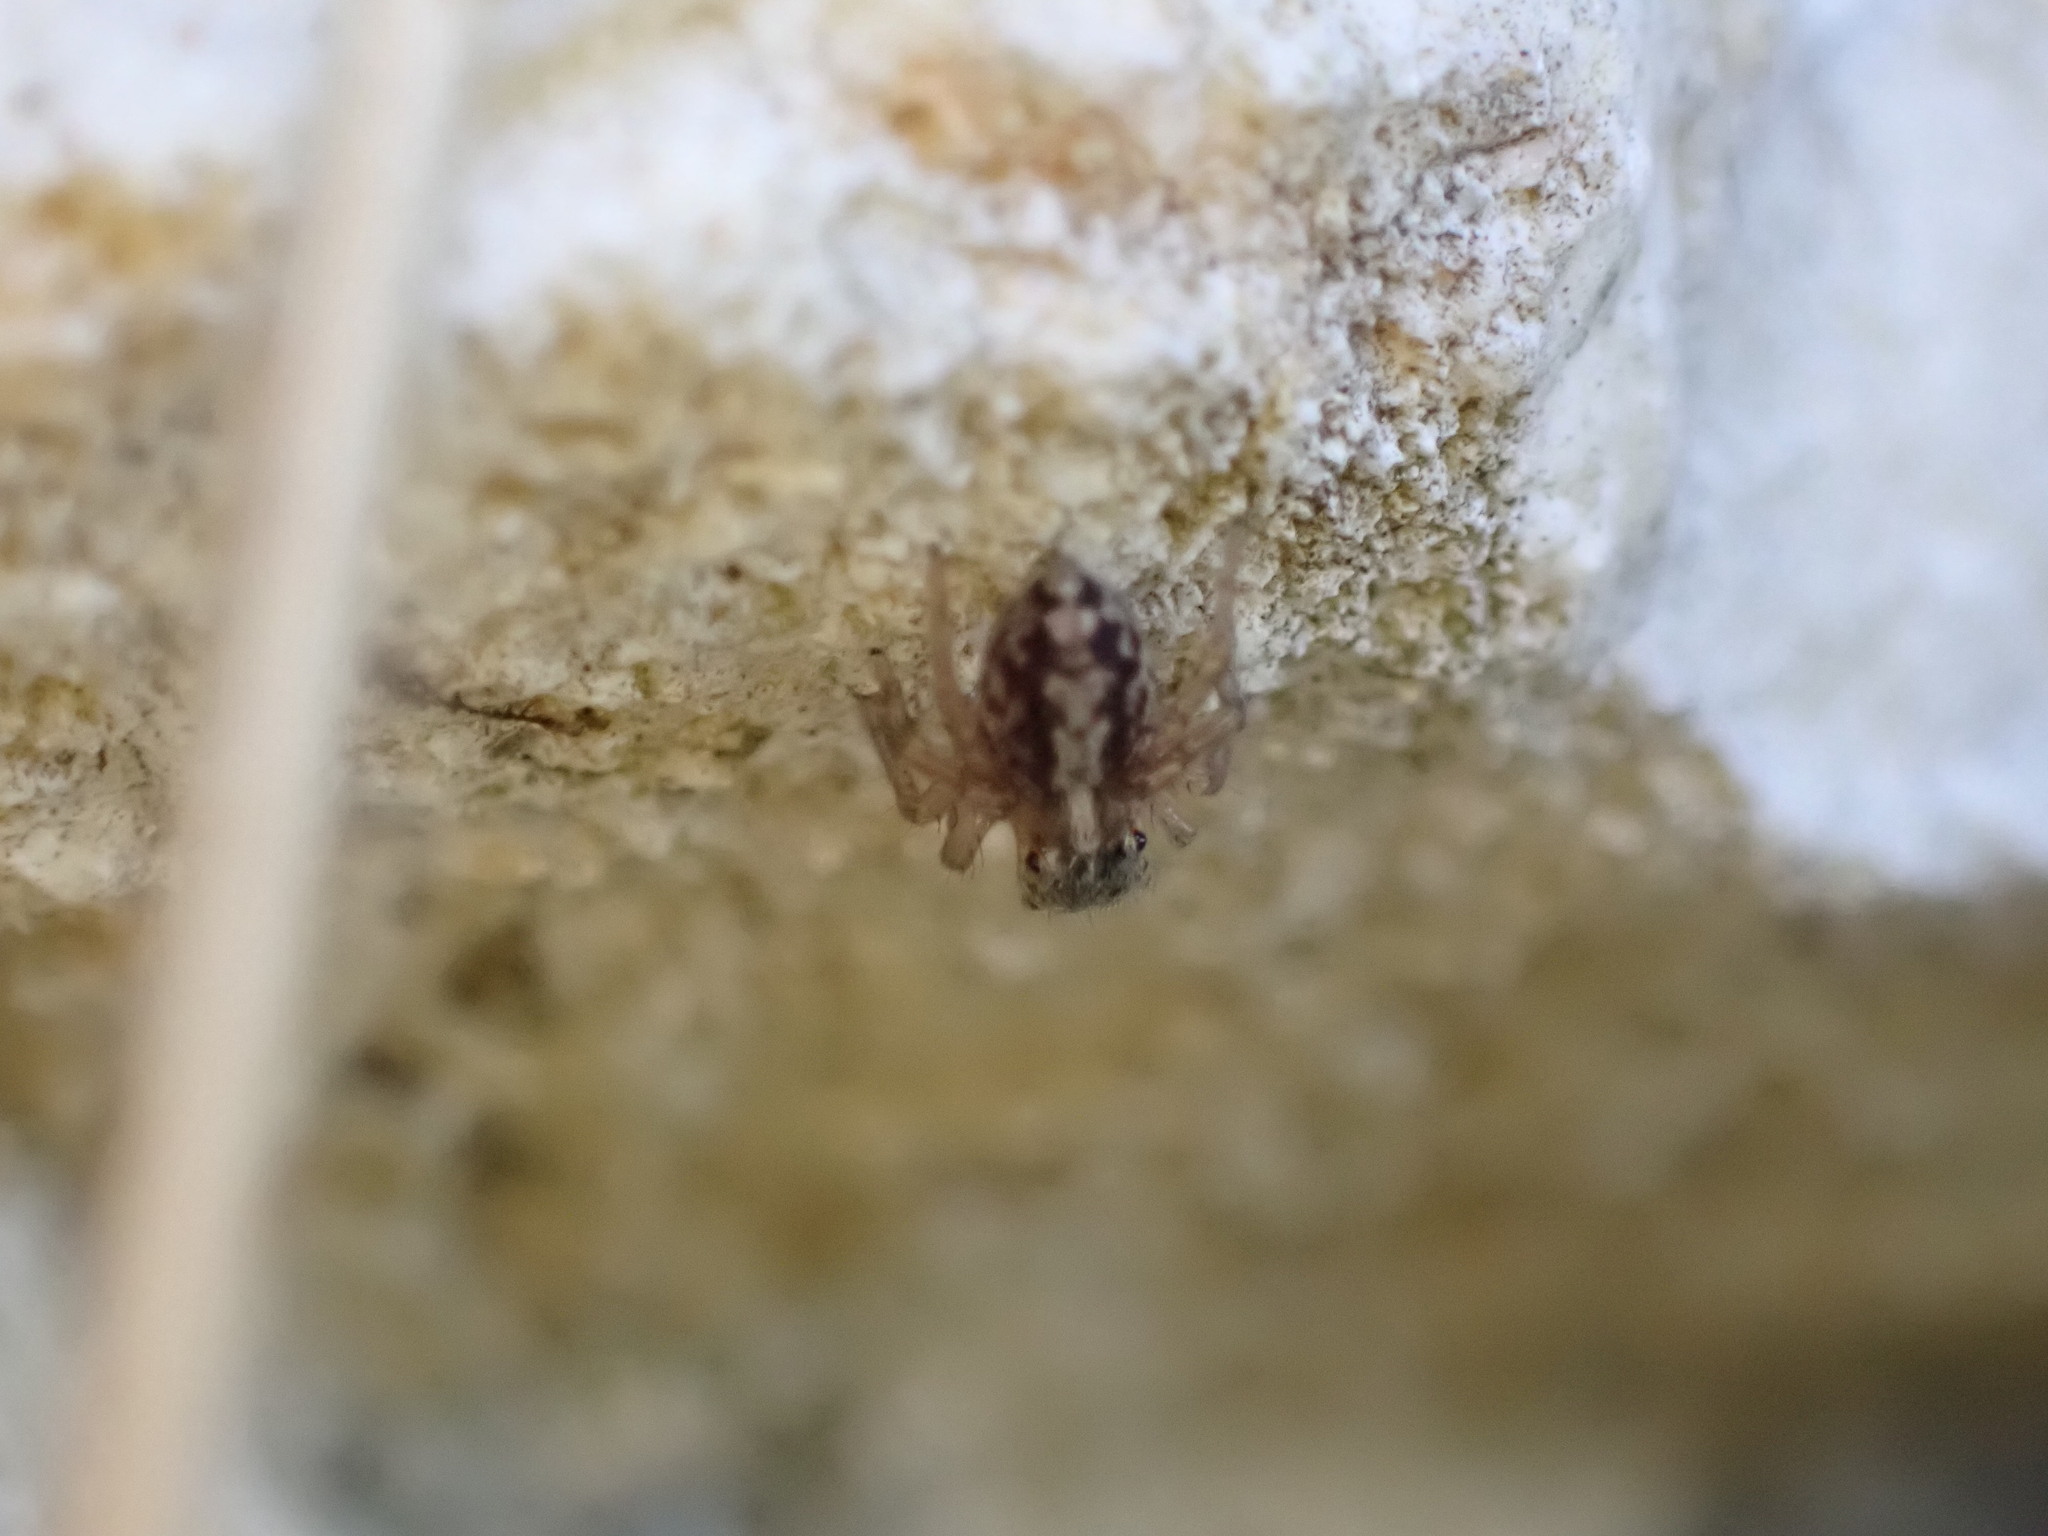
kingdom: Animalia
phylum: Arthropoda
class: Arachnida
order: Araneae
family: Salticidae
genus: Saitis
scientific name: Saitis barbipes
